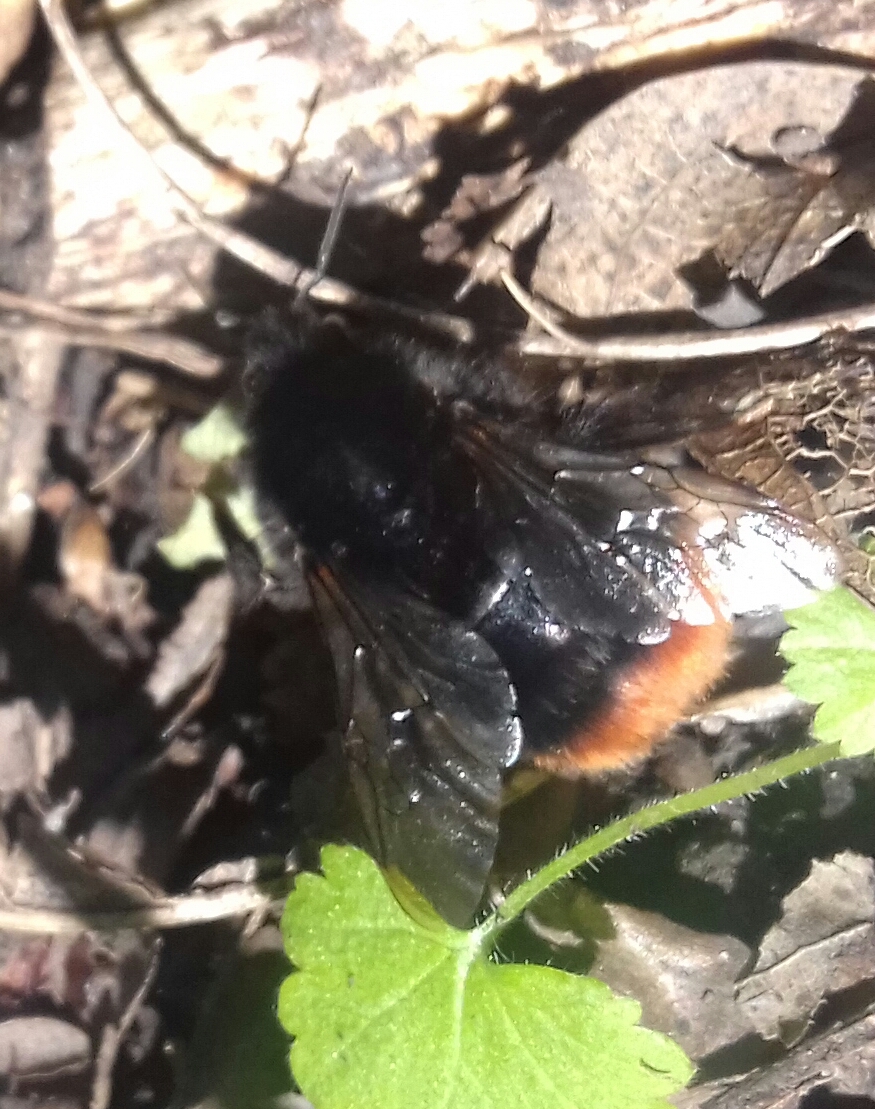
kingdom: Animalia
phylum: Arthropoda
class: Insecta
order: Hymenoptera
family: Apidae
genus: Bombus
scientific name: Bombus lapidarius
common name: Large red-tailed humble-bee
